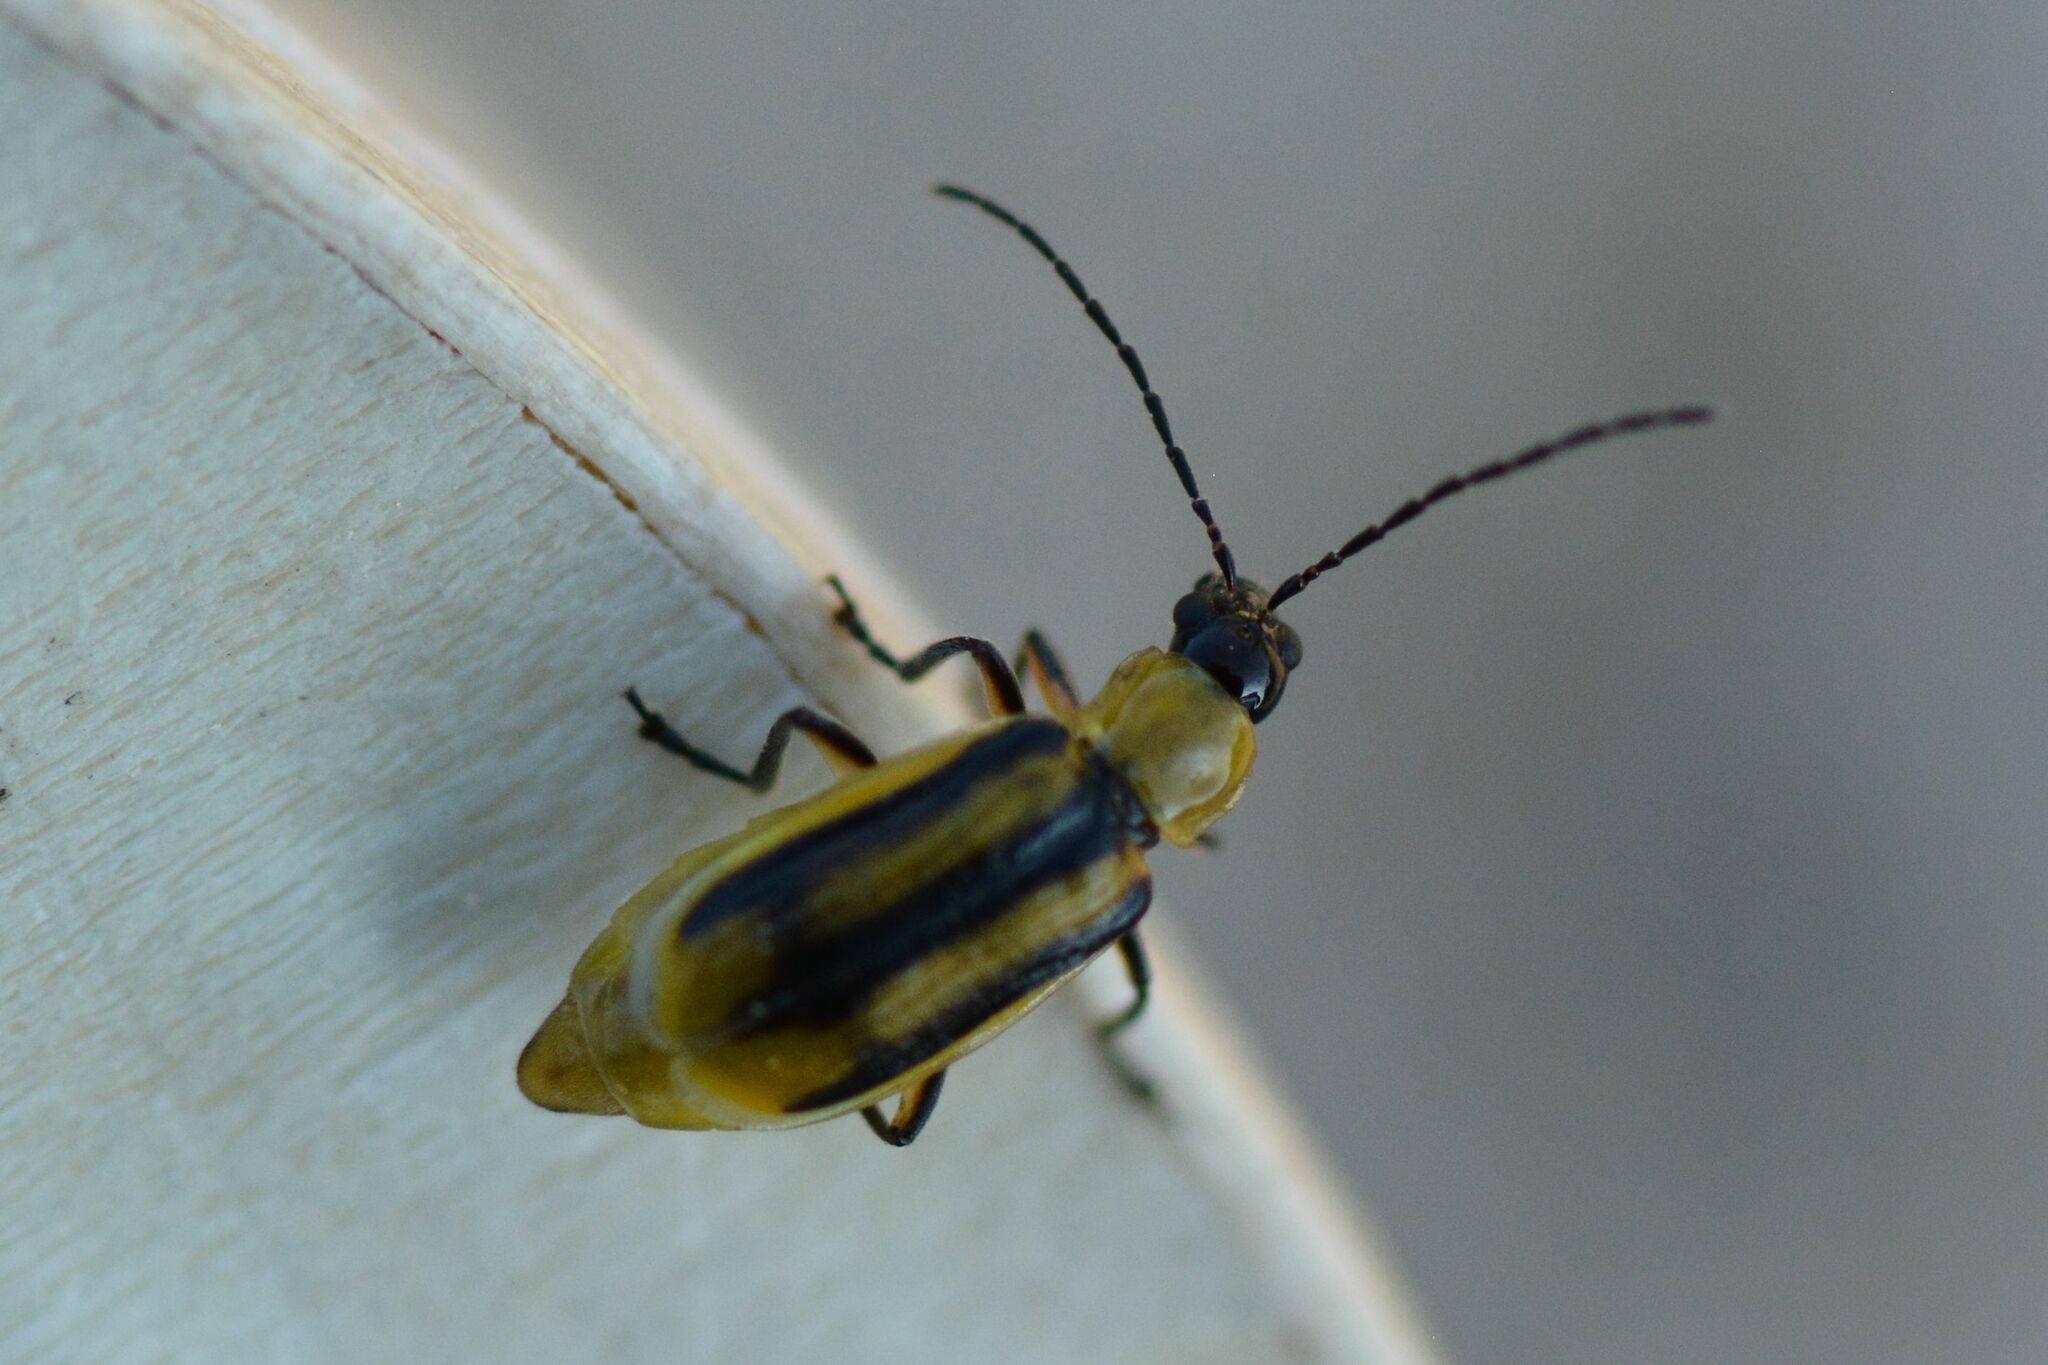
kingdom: Animalia
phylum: Arthropoda
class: Insecta
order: Coleoptera
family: Chrysomelidae
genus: Diabrotica
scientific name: Diabrotica virgifera
